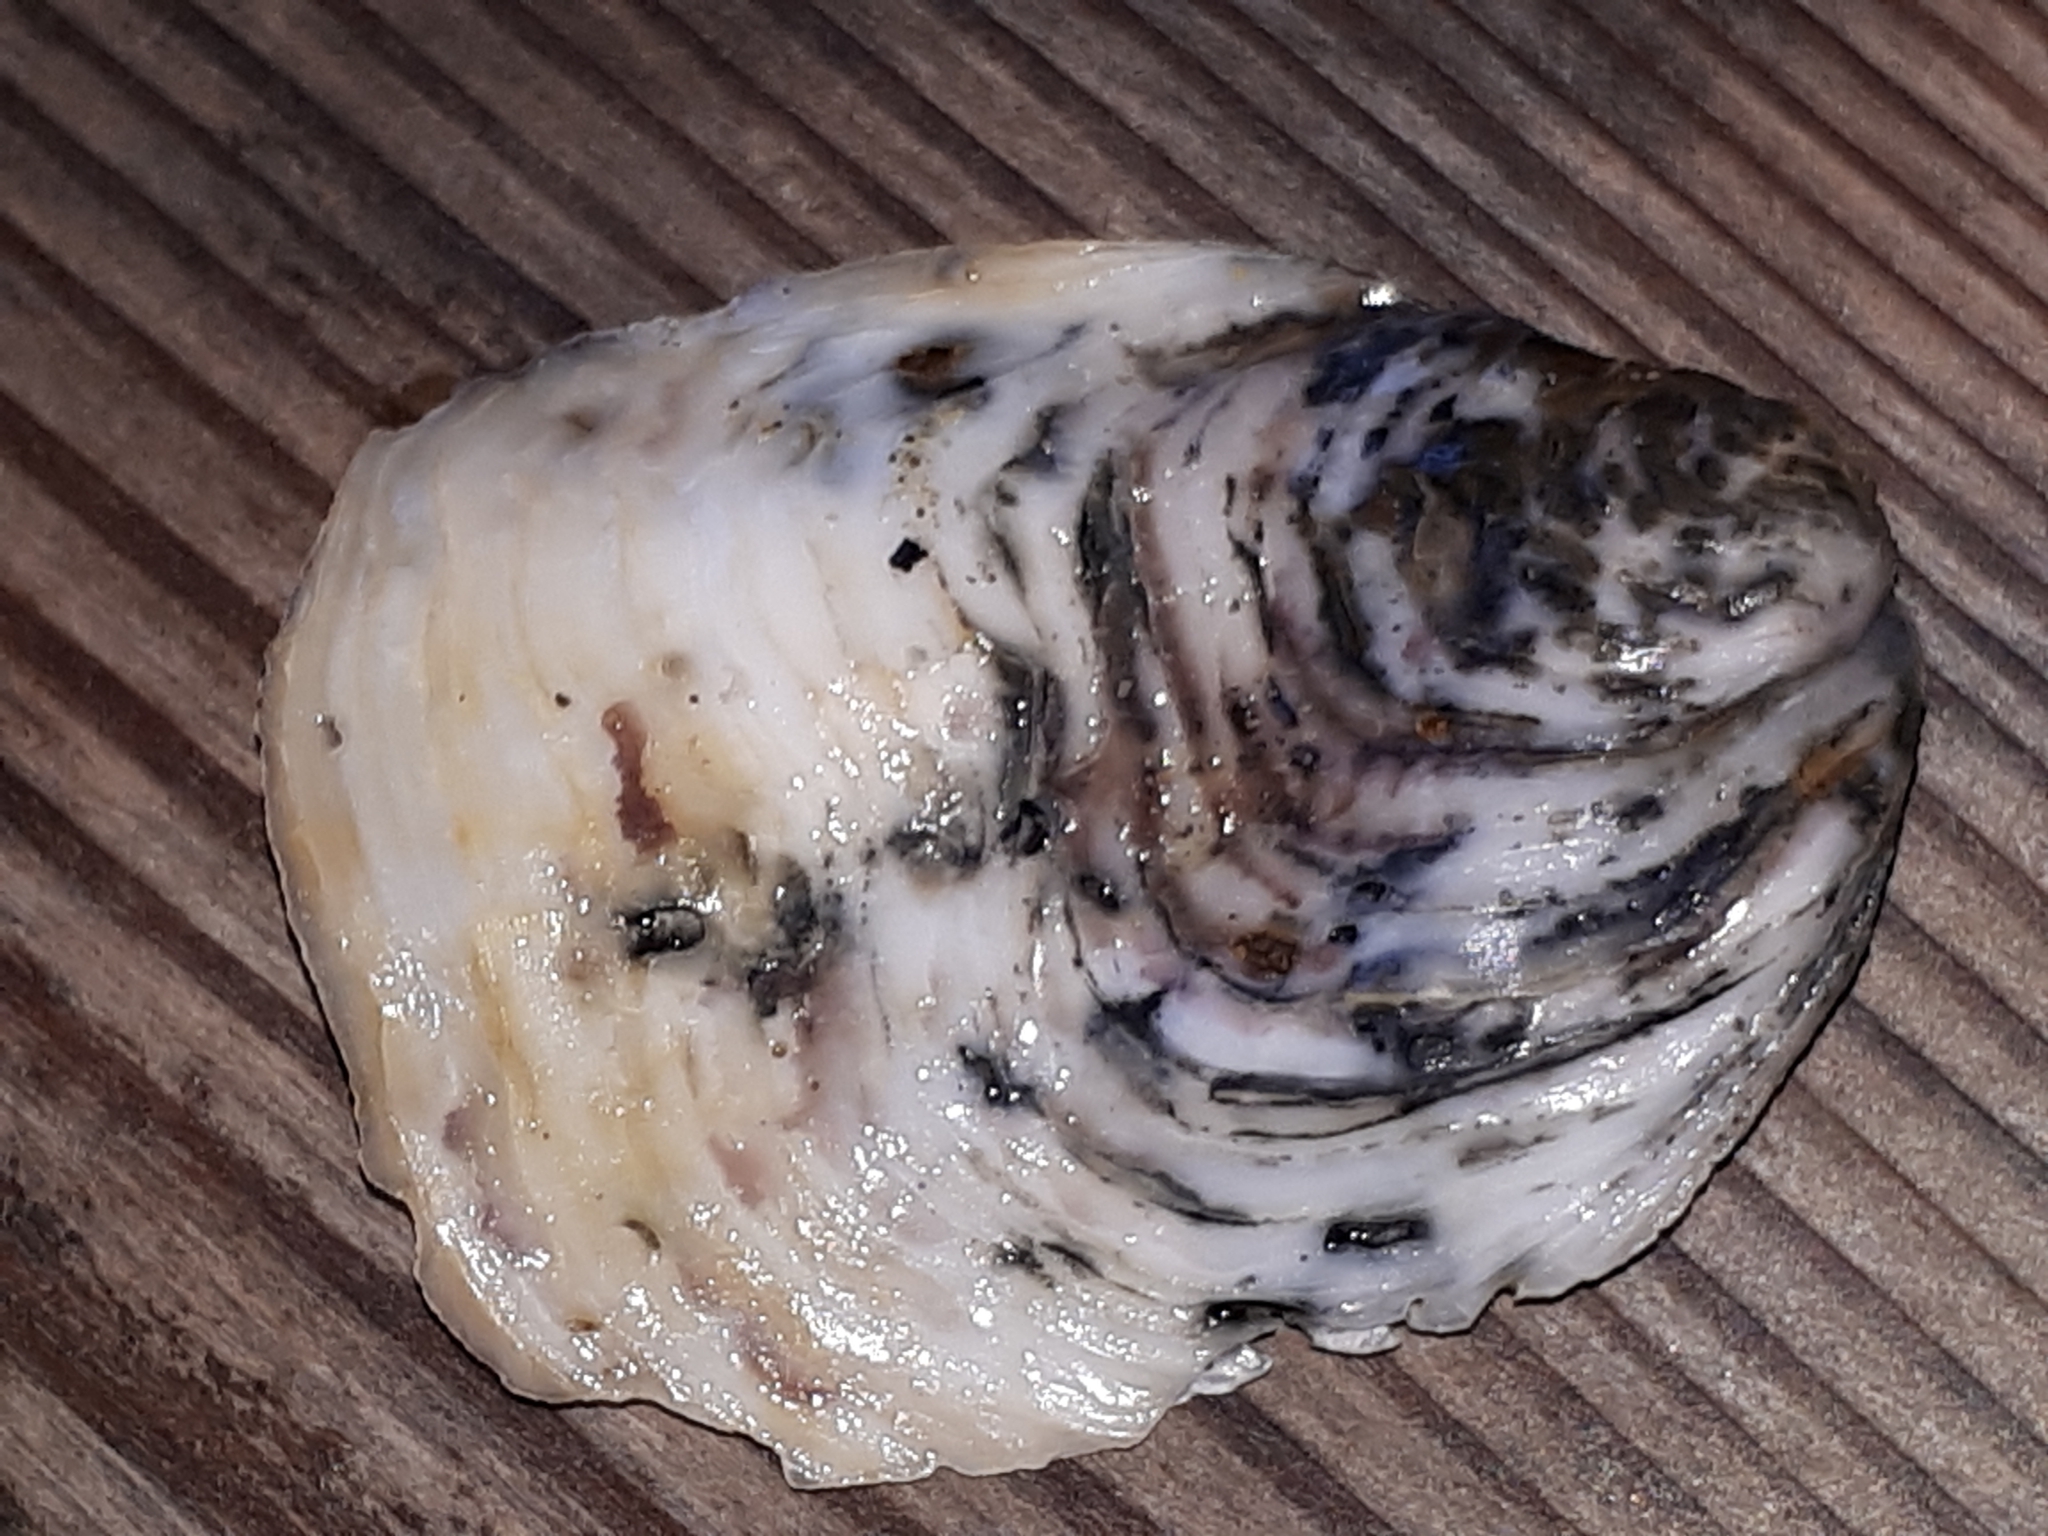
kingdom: Animalia
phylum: Mollusca
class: Bivalvia
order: Ostreida
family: Ostreidae
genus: Ostrea
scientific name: Ostrea edulis
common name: Flat oyster
